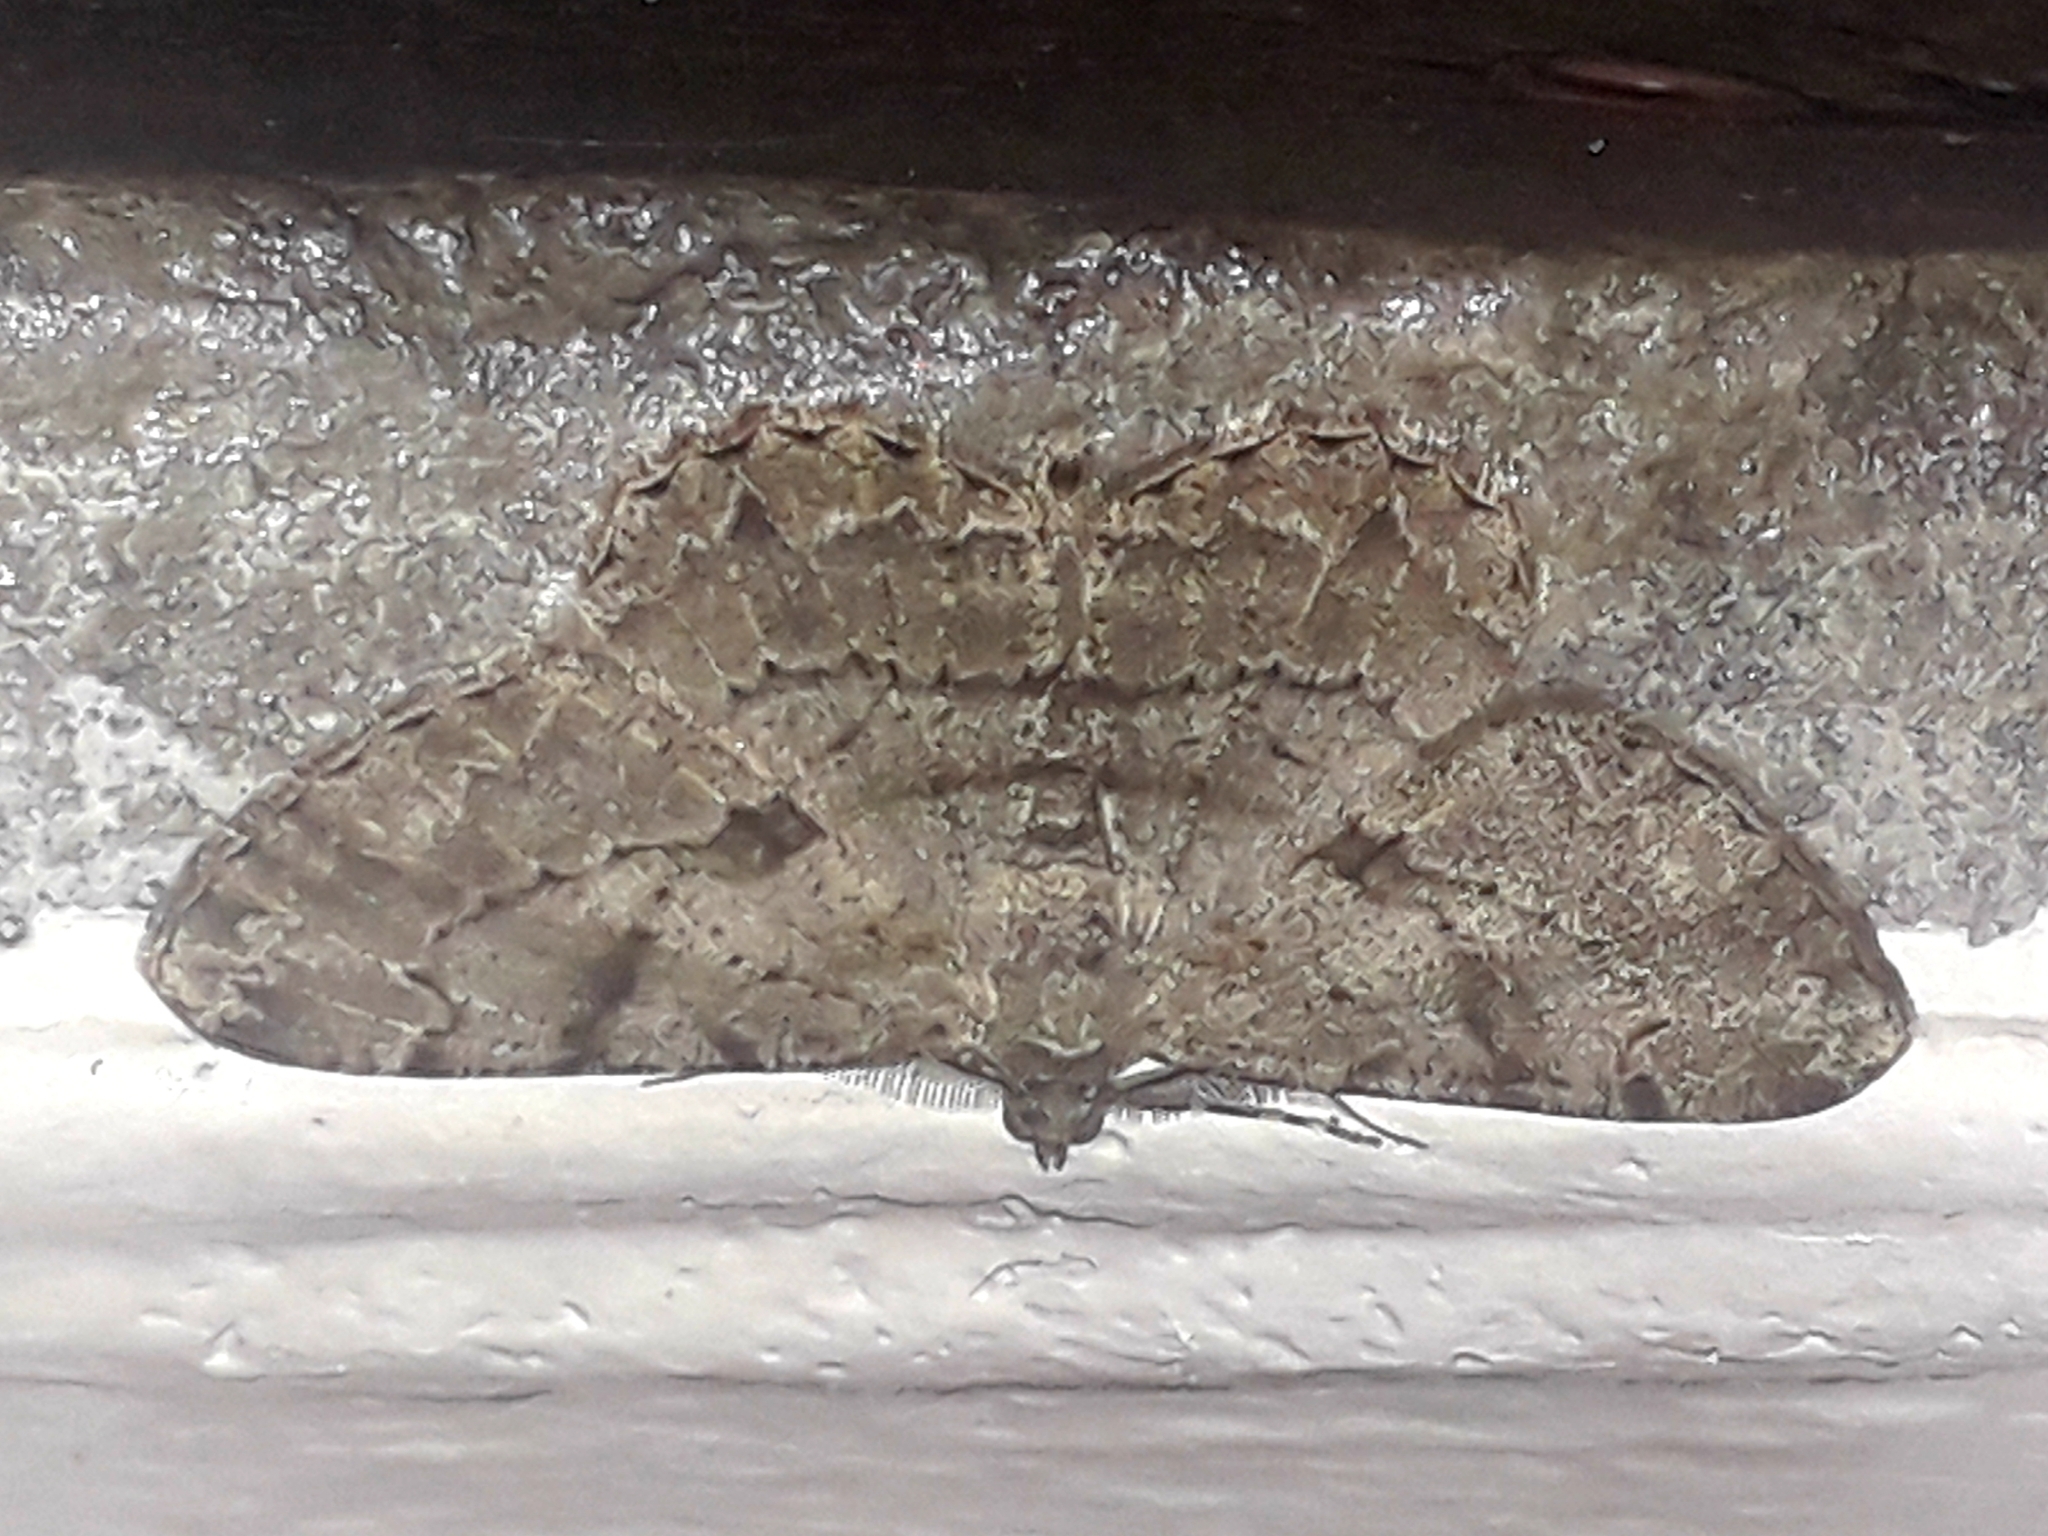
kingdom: Animalia
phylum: Arthropoda
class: Insecta
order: Lepidoptera
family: Geometridae
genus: Peribatodes
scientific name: Peribatodes rhomboidaria
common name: Willow beauty
